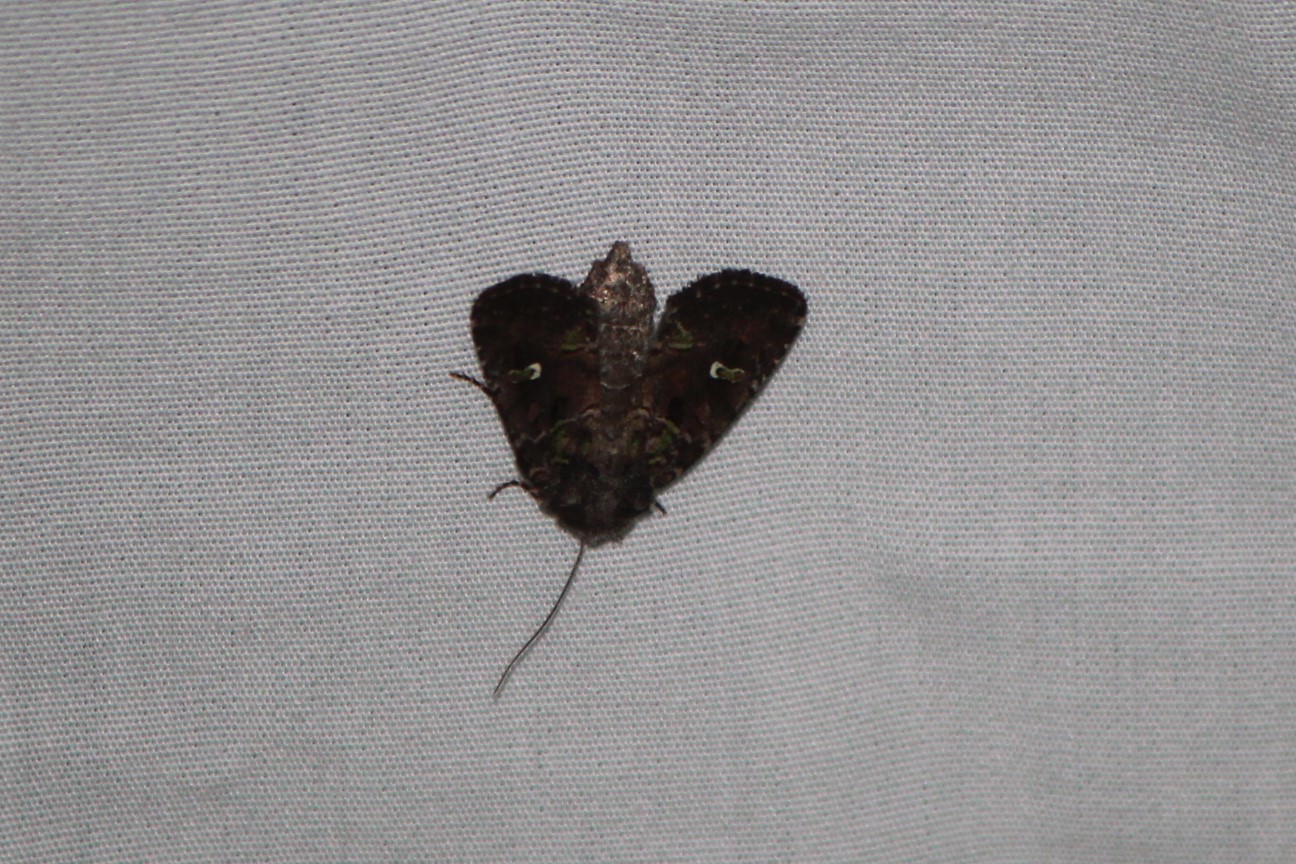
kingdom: Animalia
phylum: Arthropoda
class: Insecta
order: Lepidoptera
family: Noctuidae
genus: Lacinipolia
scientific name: Lacinipolia renigera
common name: Kidney-spotted minor
